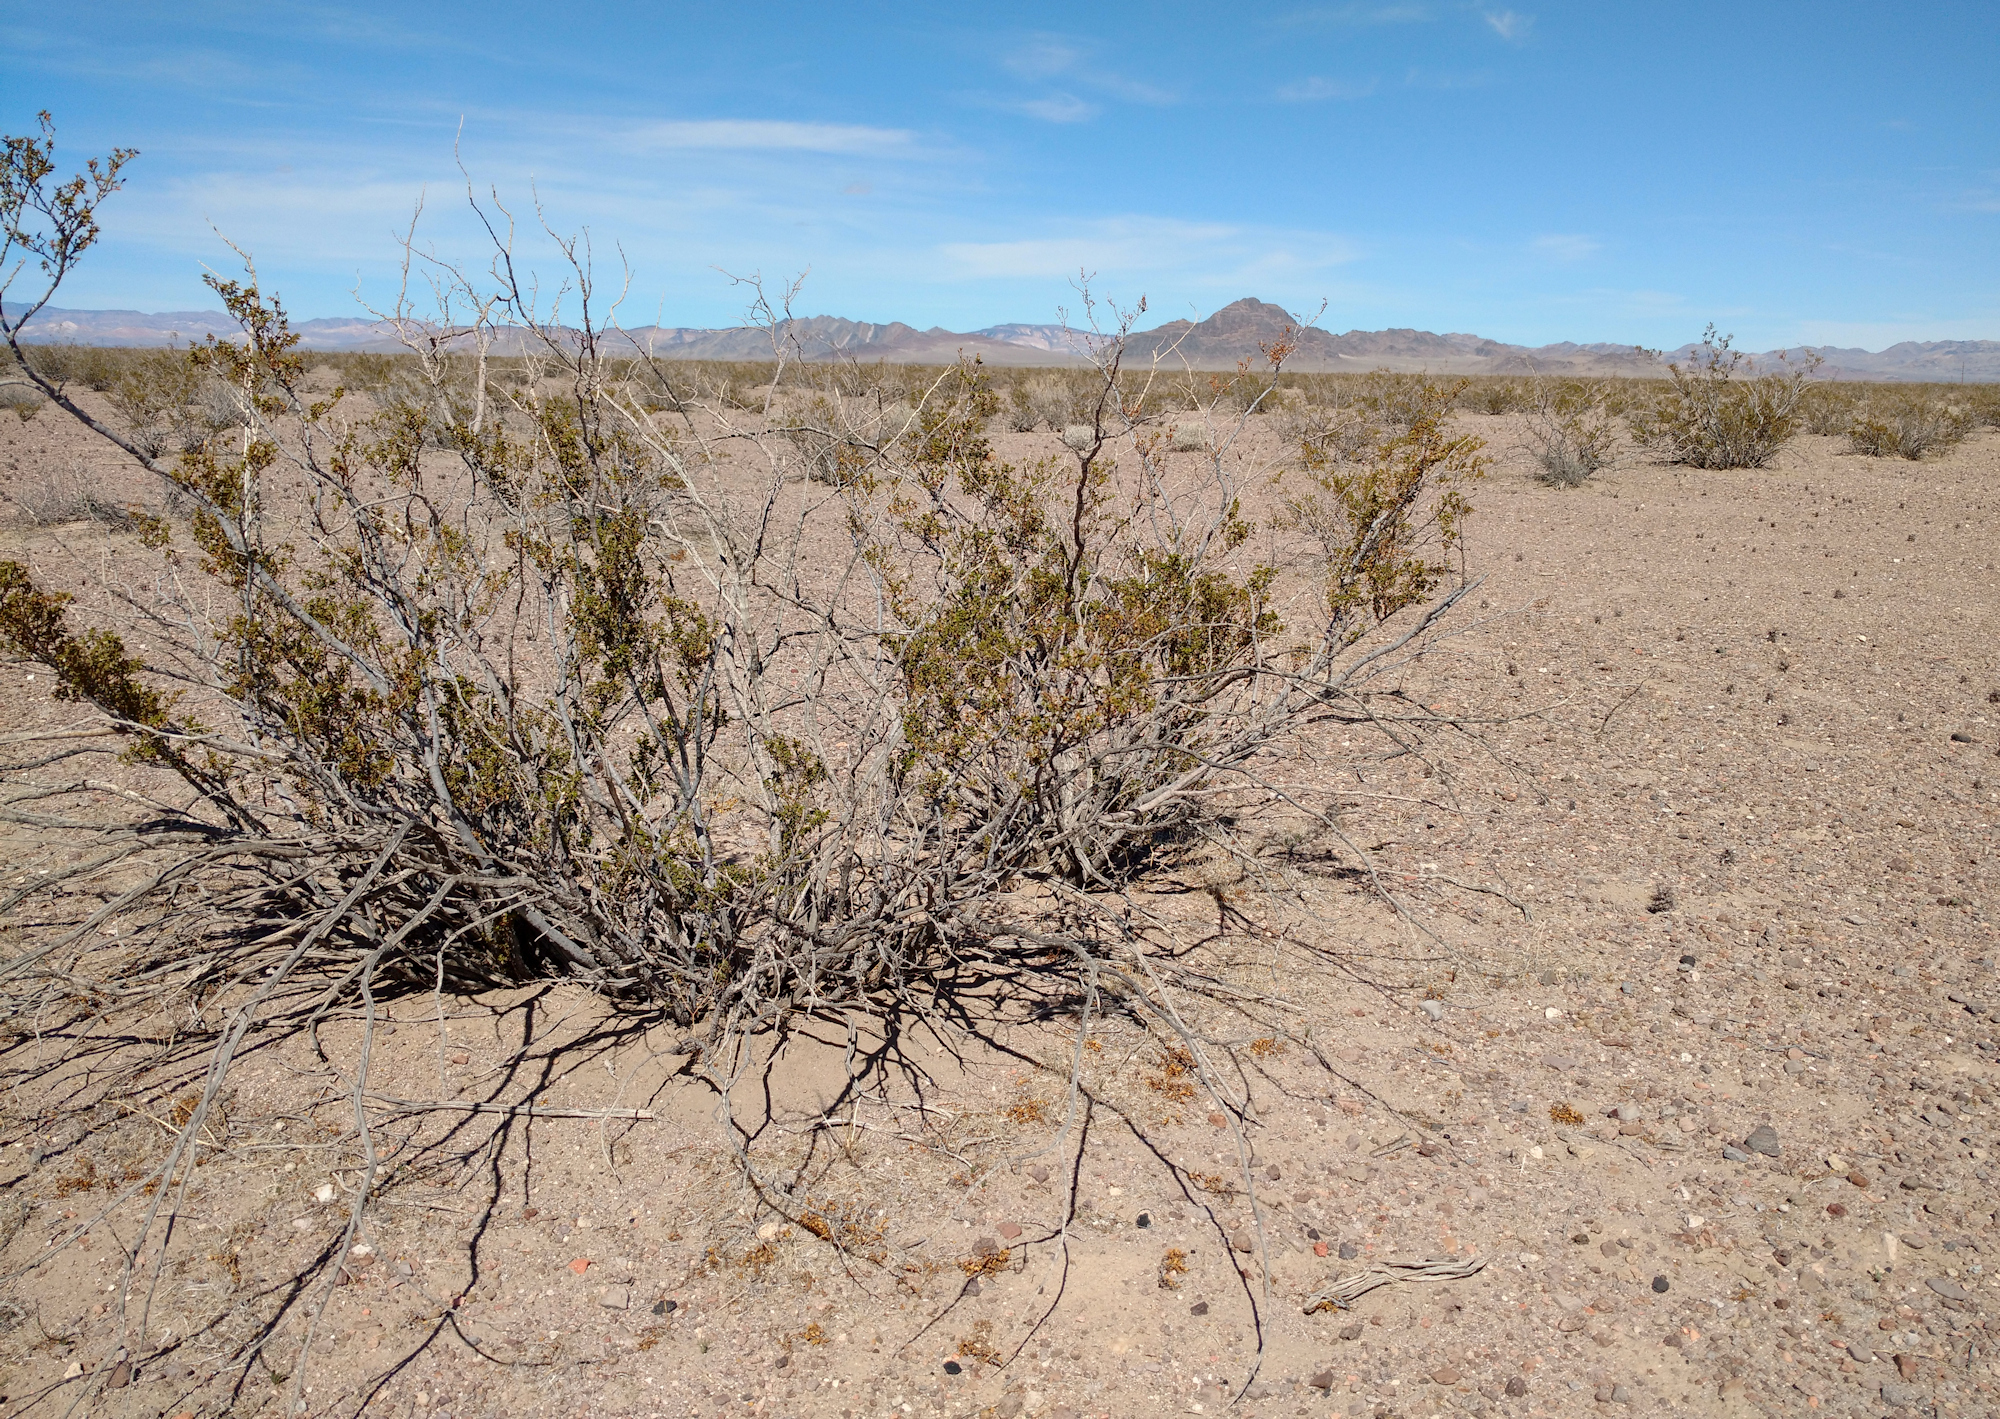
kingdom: Plantae
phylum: Tracheophyta
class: Magnoliopsida
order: Zygophyllales
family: Zygophyllaceae
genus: Larrea
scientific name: Larrea tridentata
